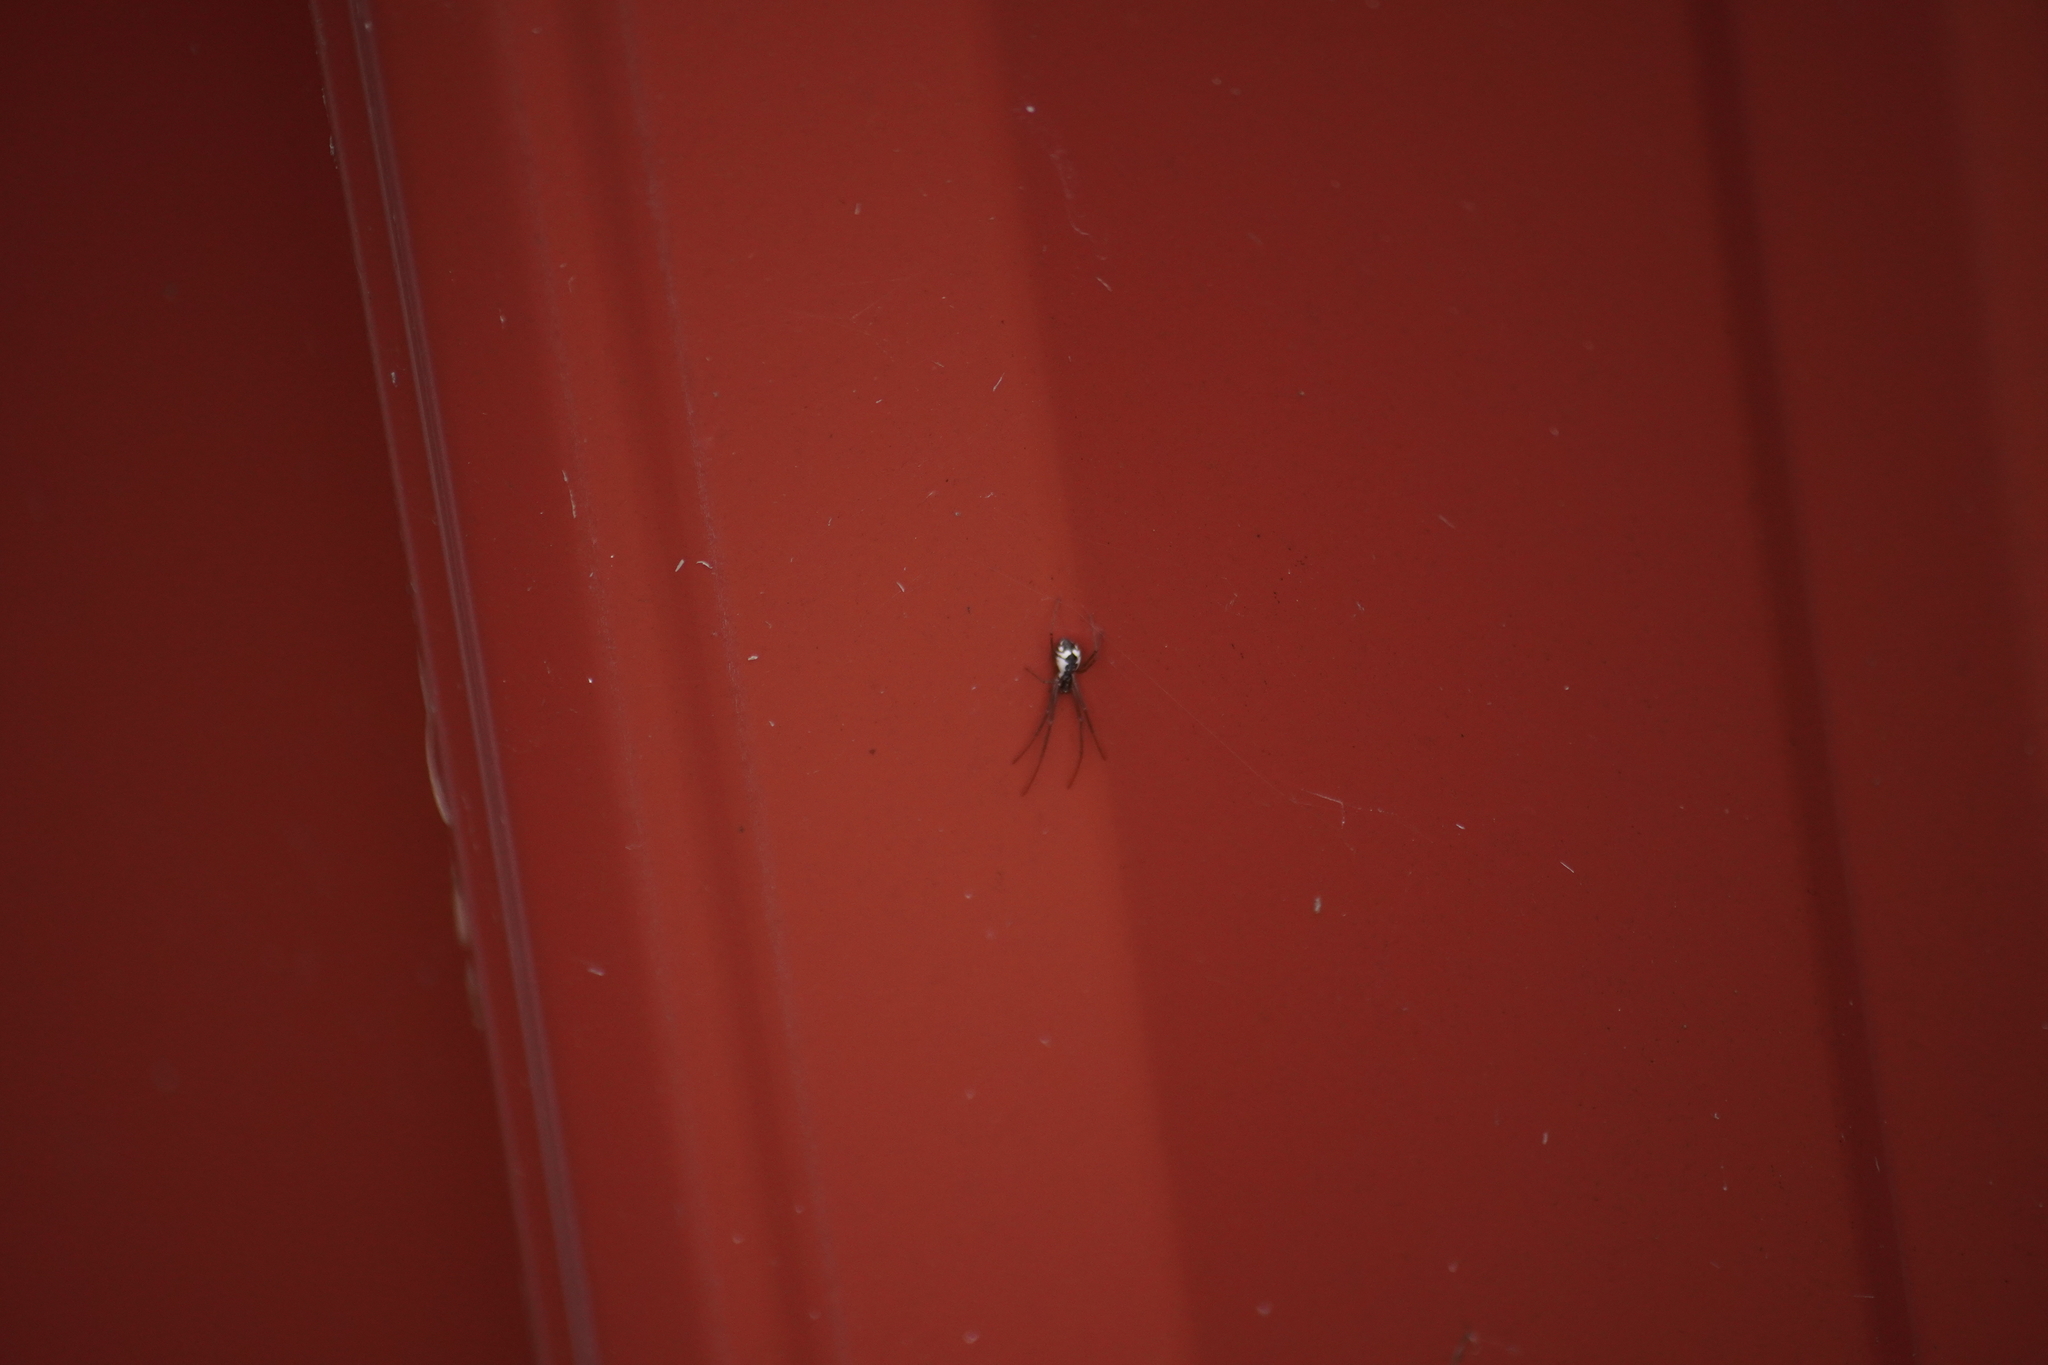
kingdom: Animalia
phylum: Arthropoda
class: Arachnida
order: Araneae
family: Linyphiidae
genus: Neriene
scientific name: Neriene radiata
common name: Filmy dome spider
